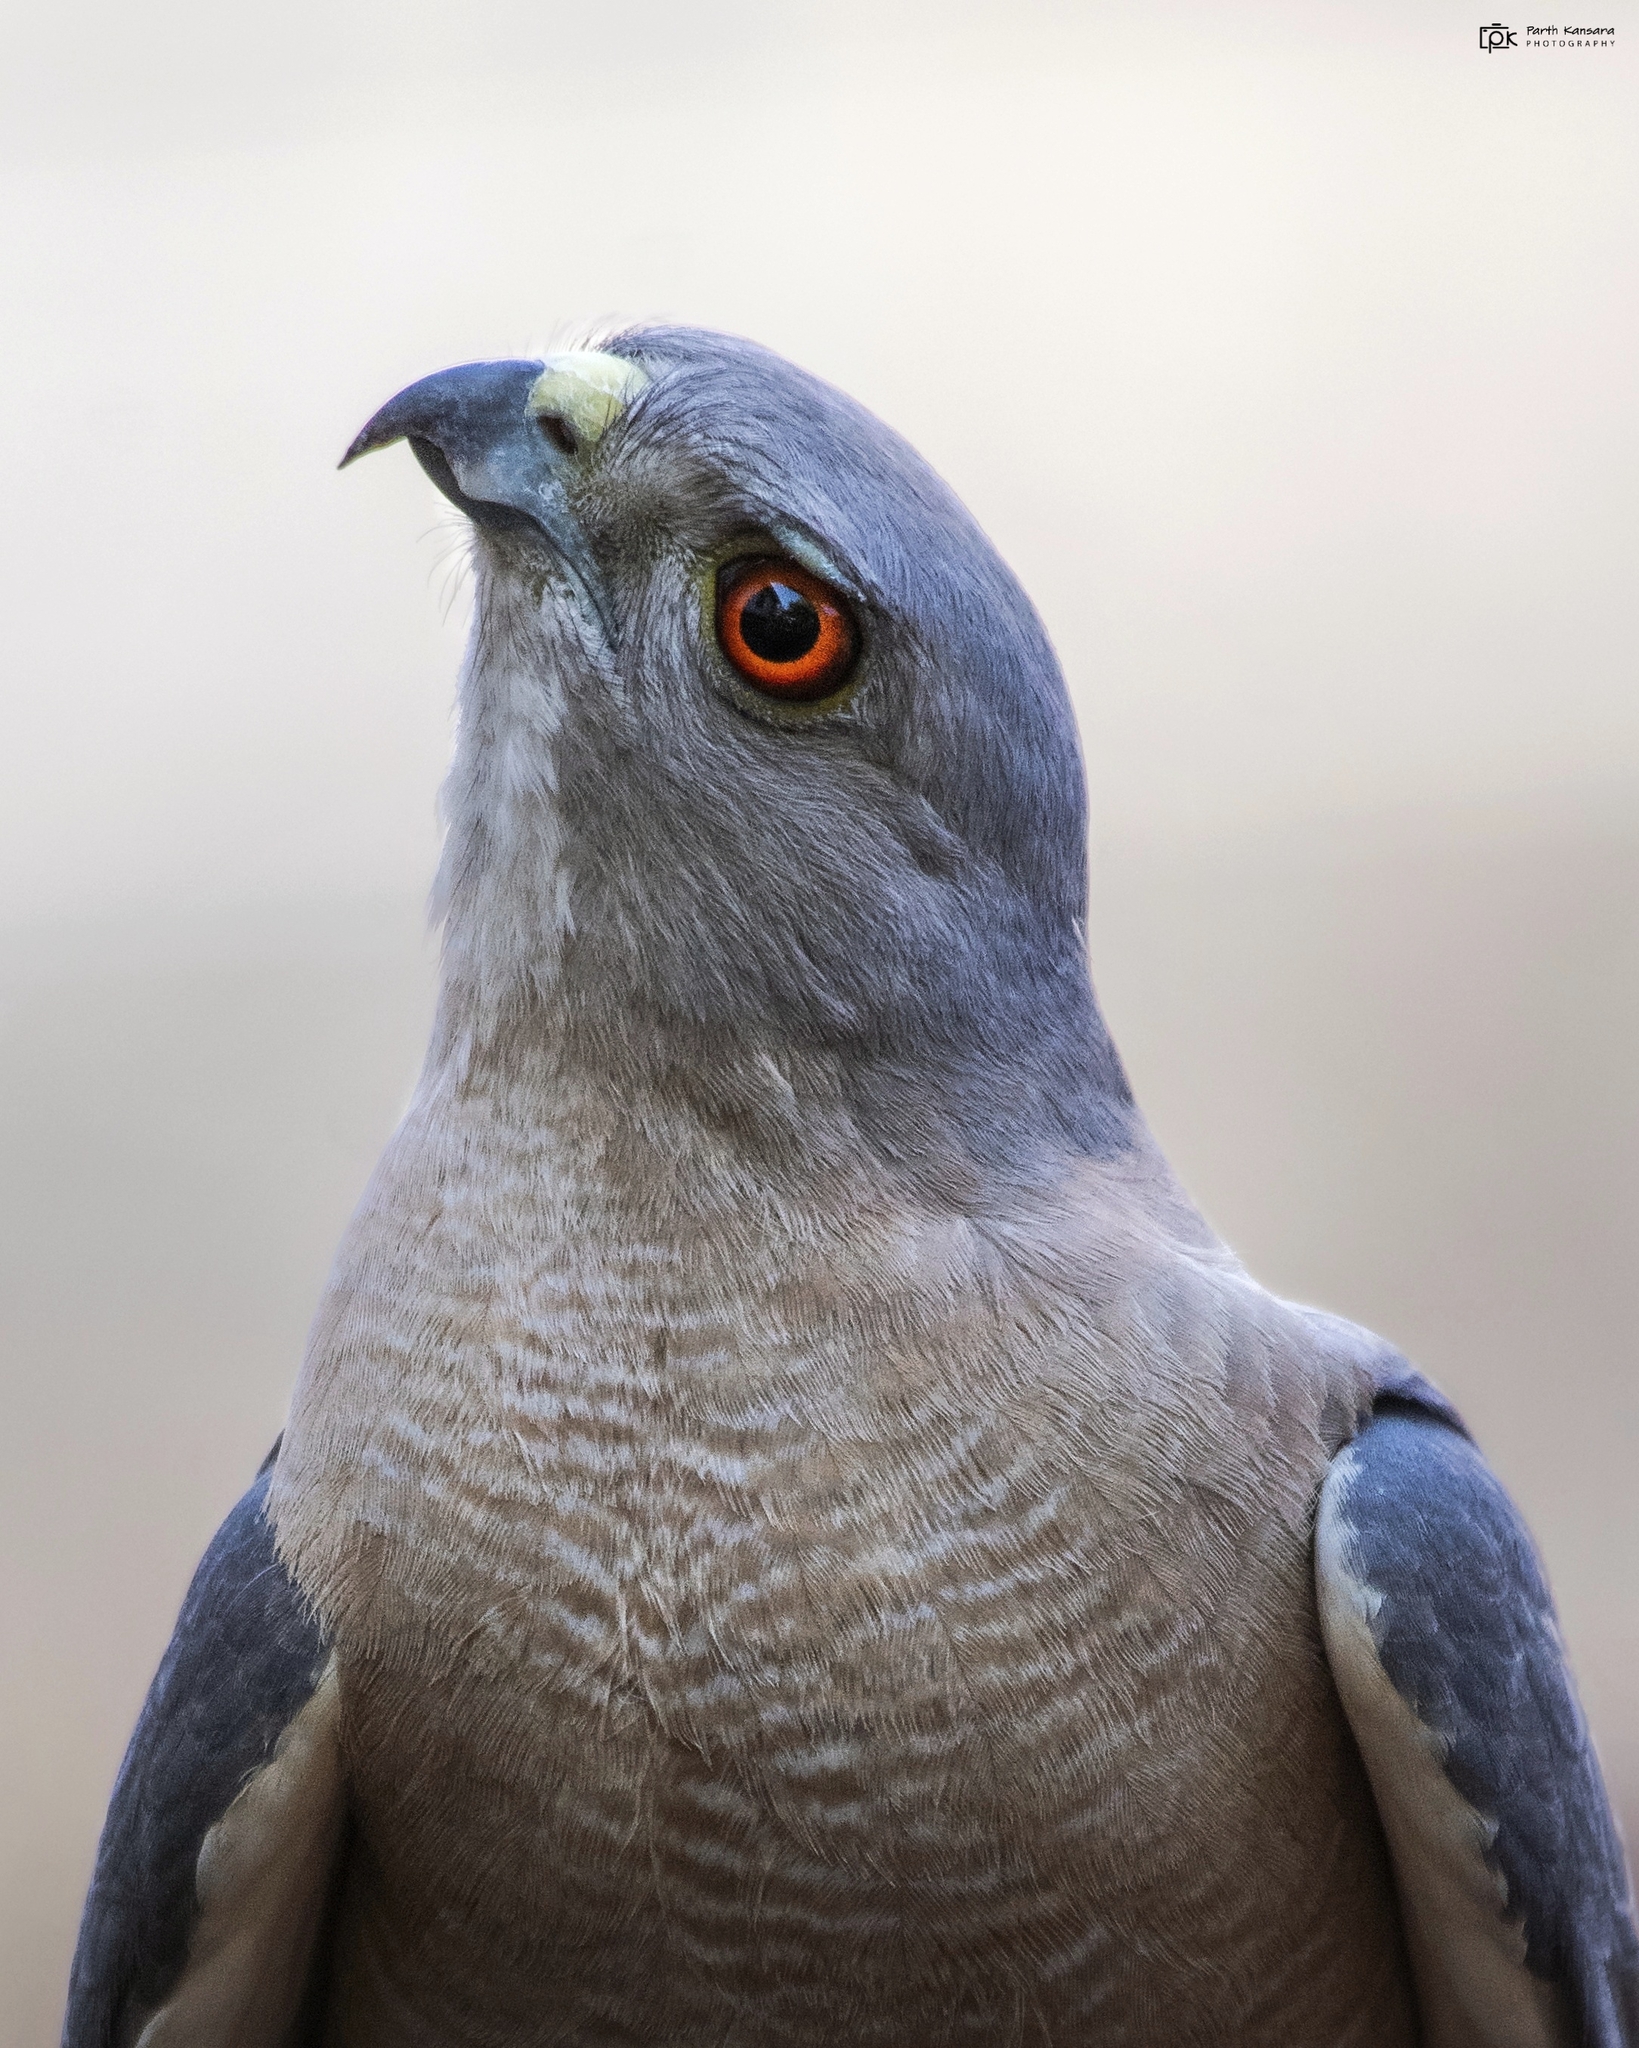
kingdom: Animalia
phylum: Chordata
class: Aves
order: Accipitriformes
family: Accipitridae
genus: Accipiter
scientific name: Accipiter badius
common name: Shikra
